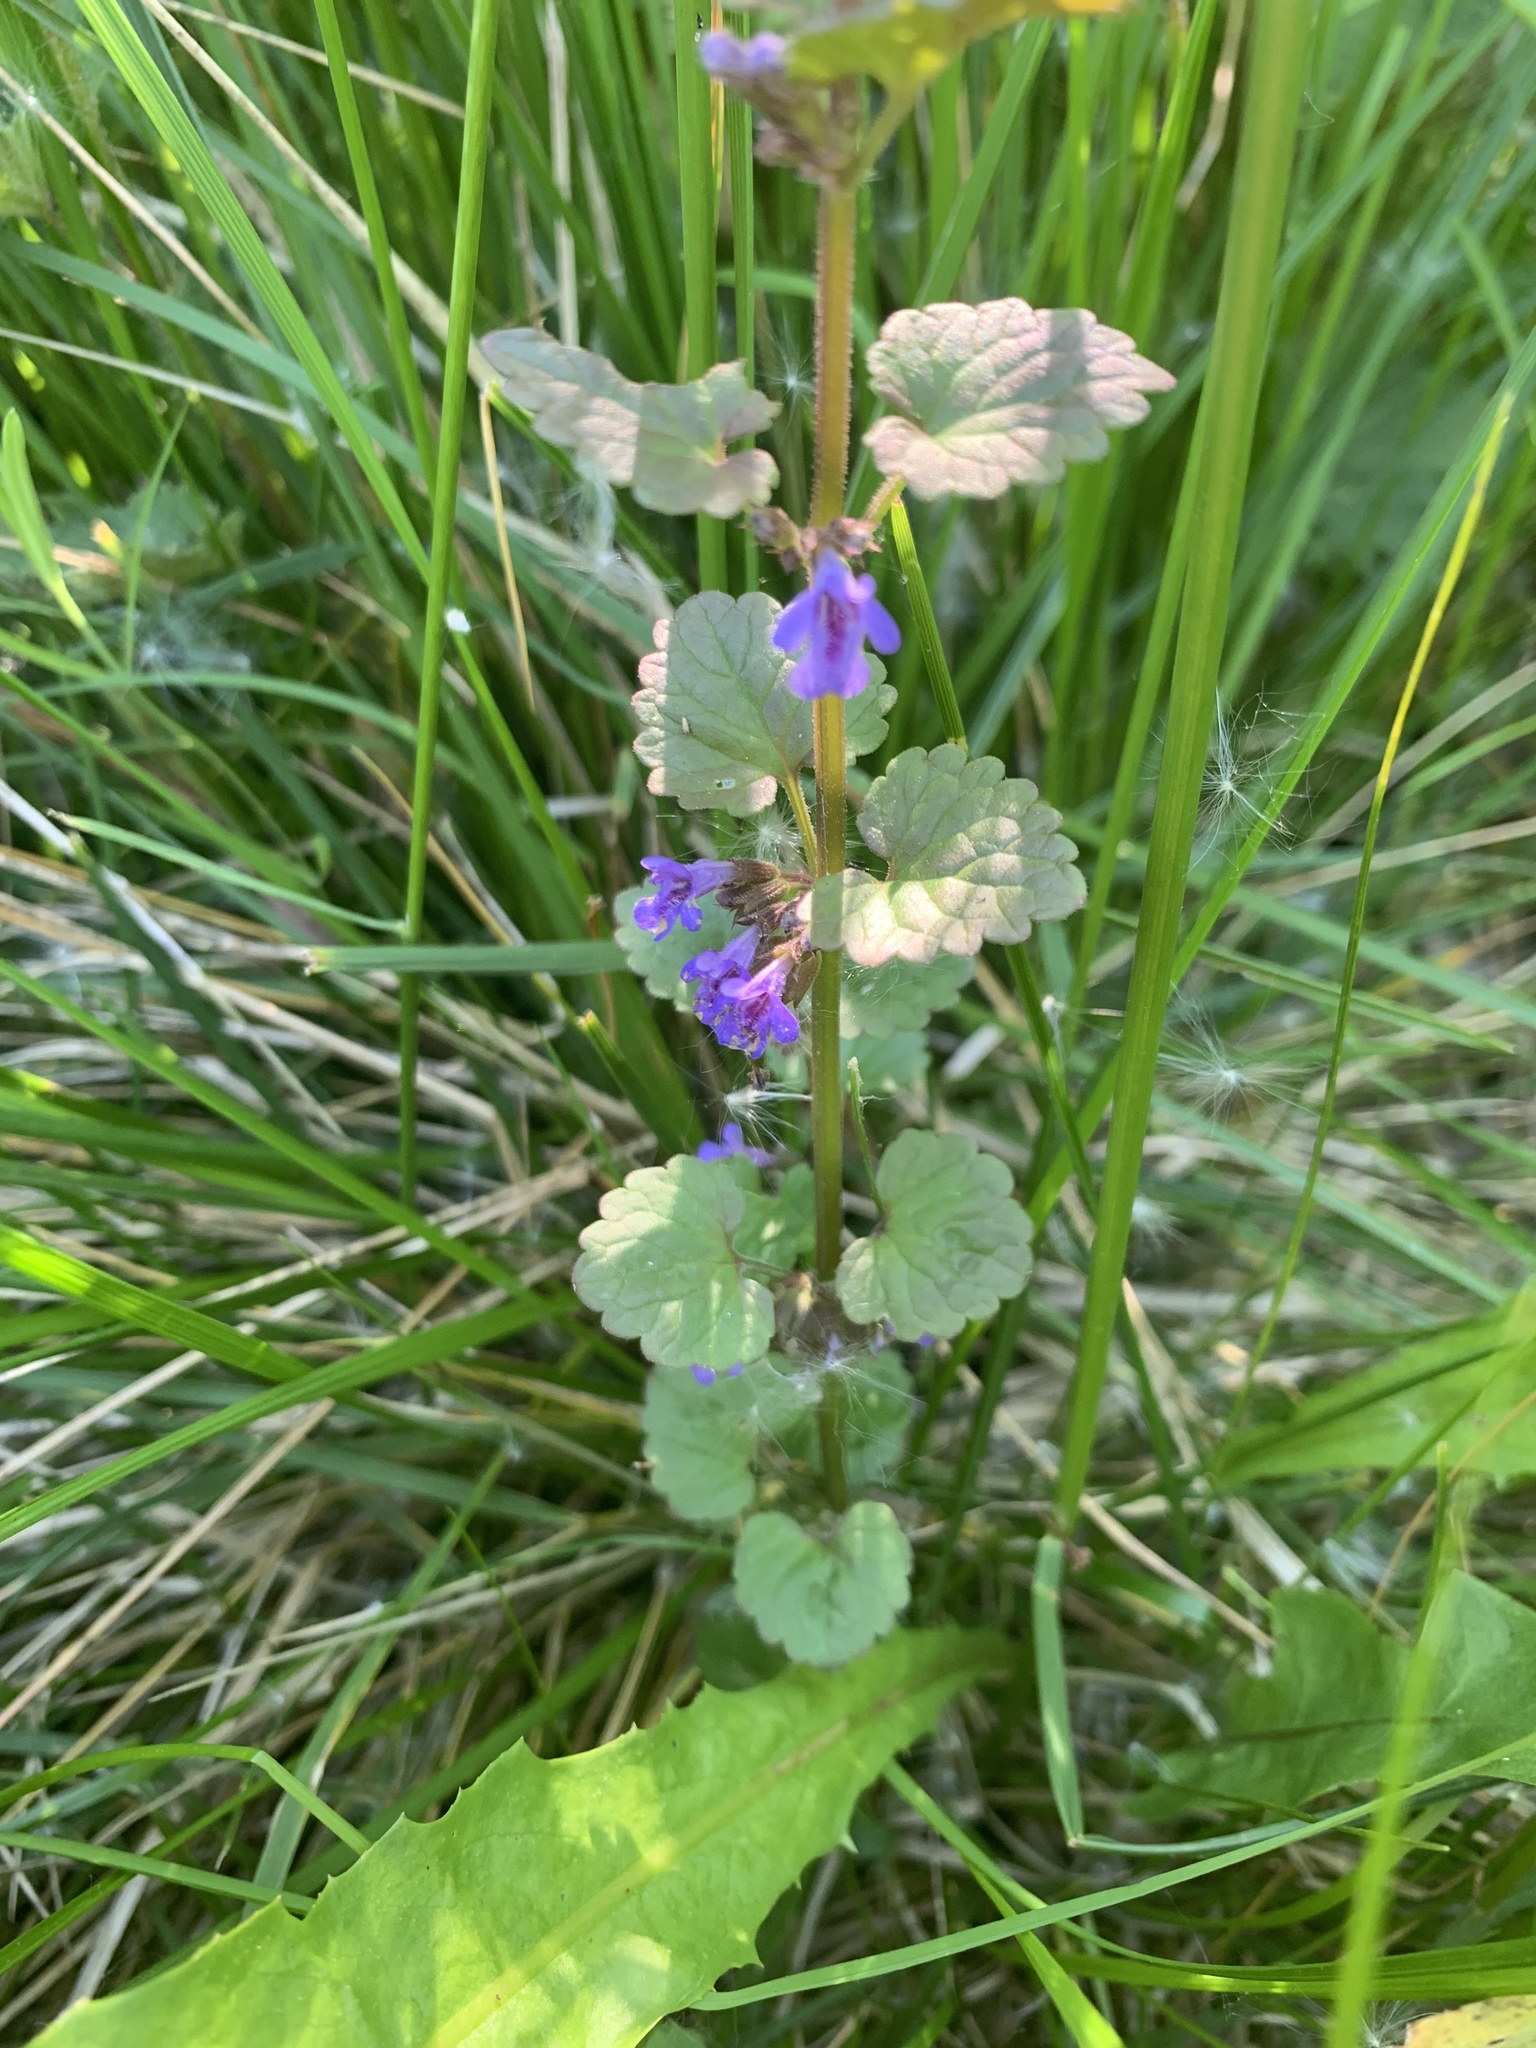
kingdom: Plantae
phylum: Tracheophyta
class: Magnoliopsida
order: Lamiales
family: Lamiaceae
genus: Glechoma
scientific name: Glechoma hederacea
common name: Ground ivy
